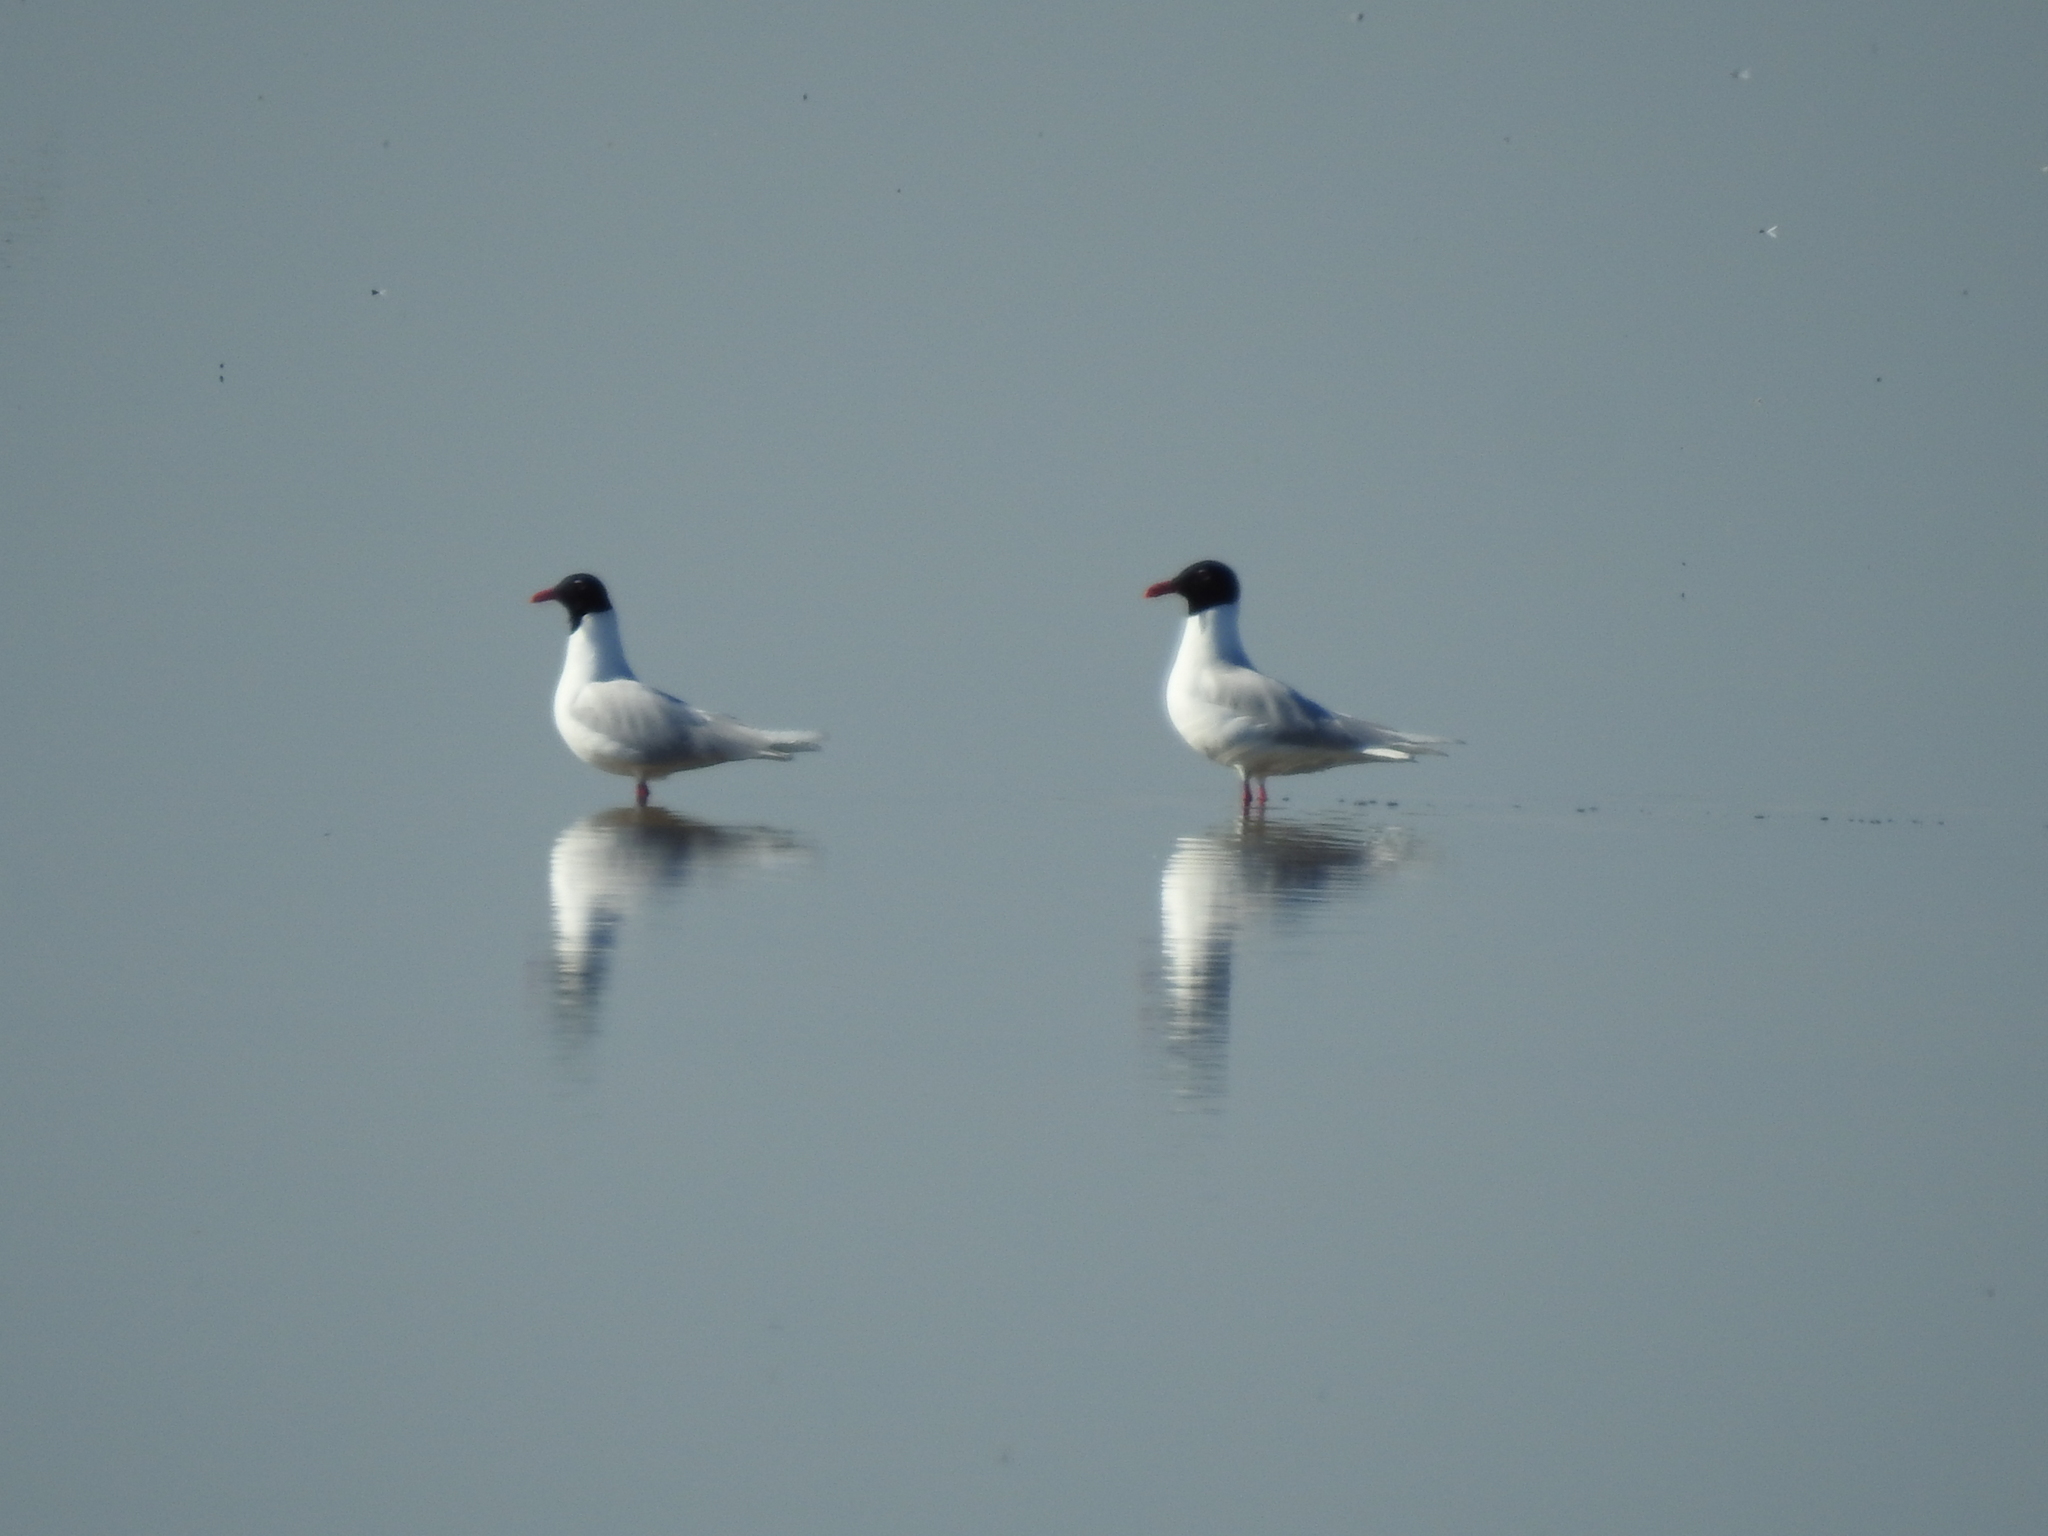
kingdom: Animalia
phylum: Chordata
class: Aves
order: Charadriiformes
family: Laridae
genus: Ichthyaetus
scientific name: Ichthyaetus melanocephalus
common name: Mediterranean gull
